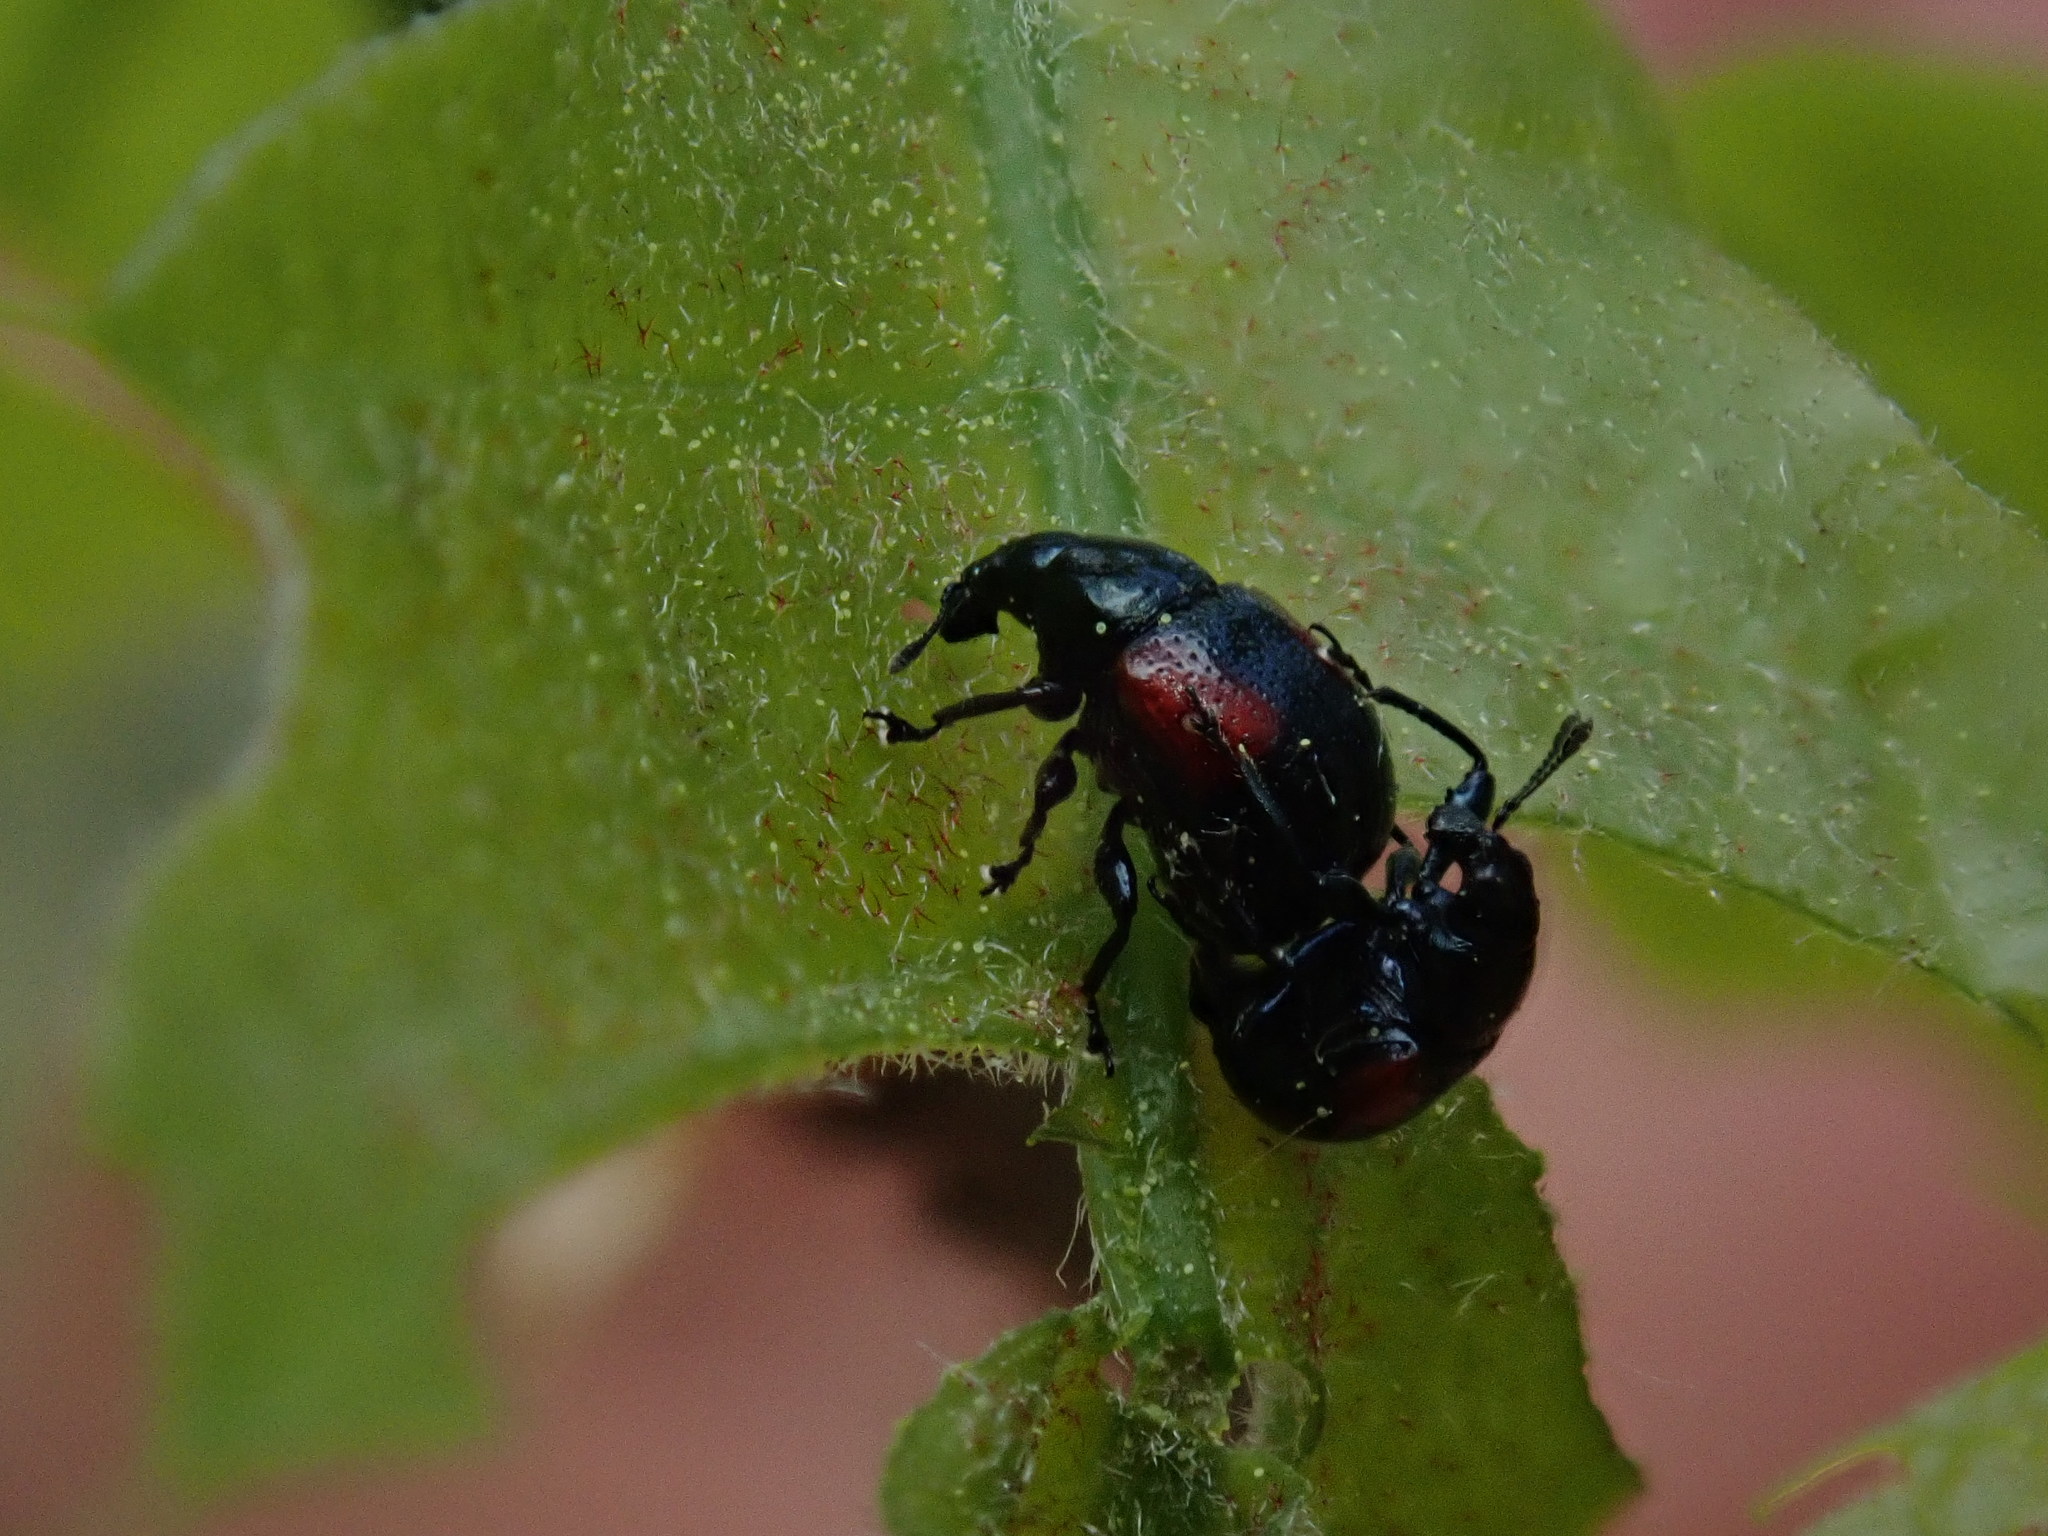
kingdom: Animalia
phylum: Arthropoda
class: Insecta
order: Coleoptera
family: Attelabidae
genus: Attelabus
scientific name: Attelabus bipustulatus
